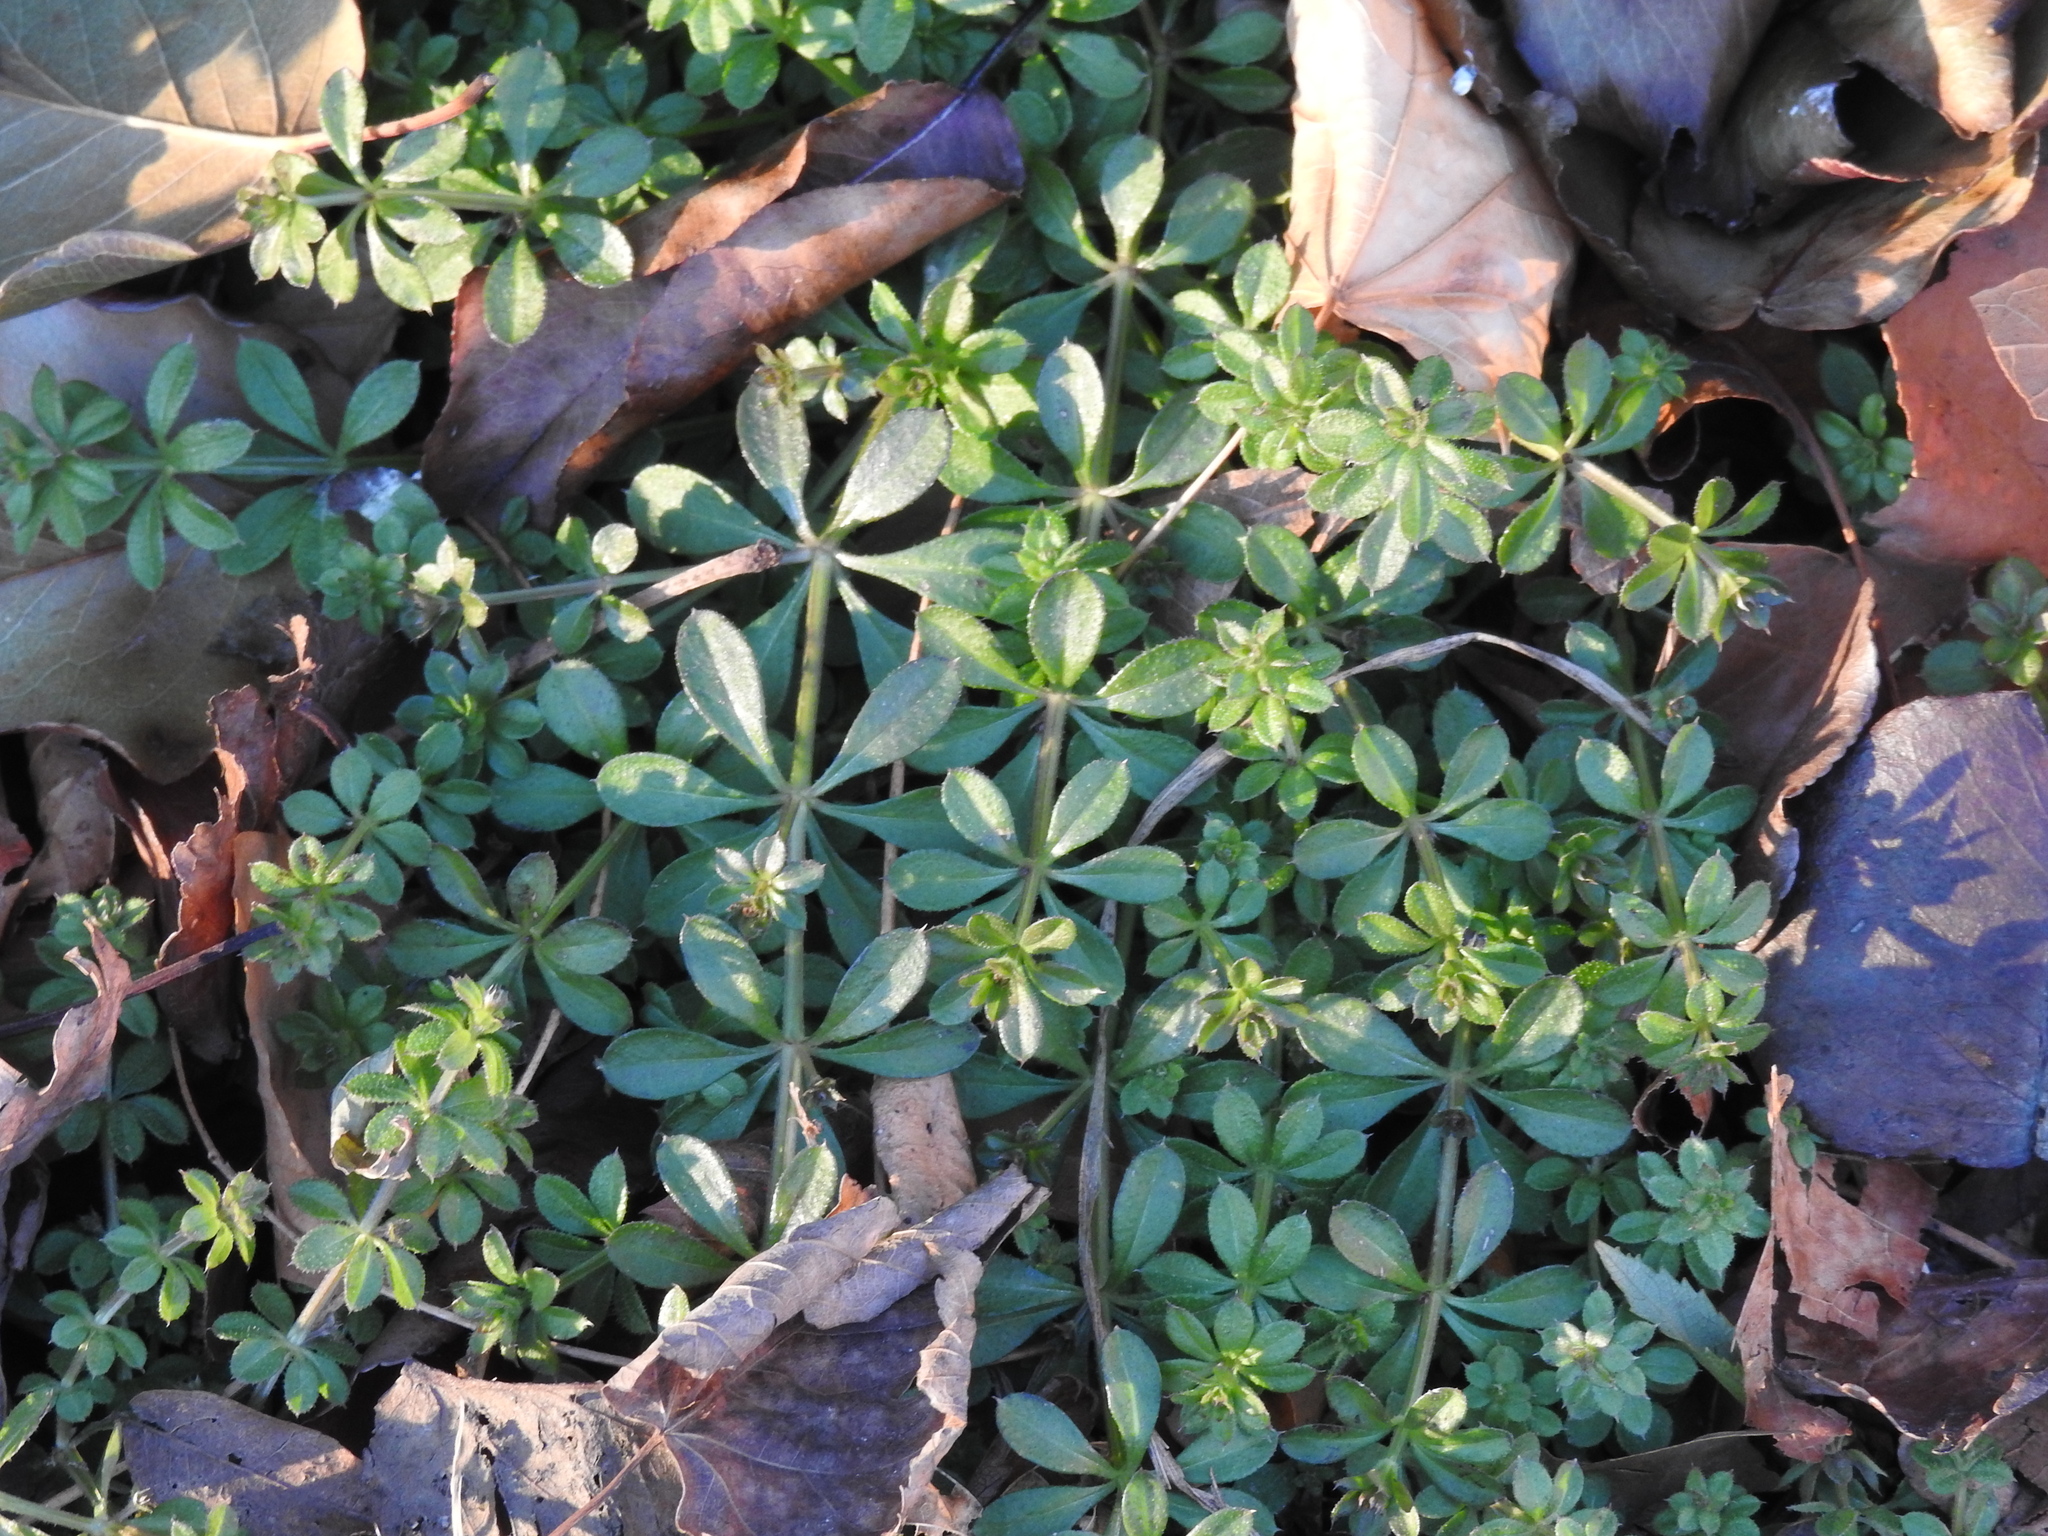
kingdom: Plantae
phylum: Tracheophyta
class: Magnoliopsida
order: Gentianales
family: Rubiaceae
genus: Galium
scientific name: Galium aparine
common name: Cleavers
